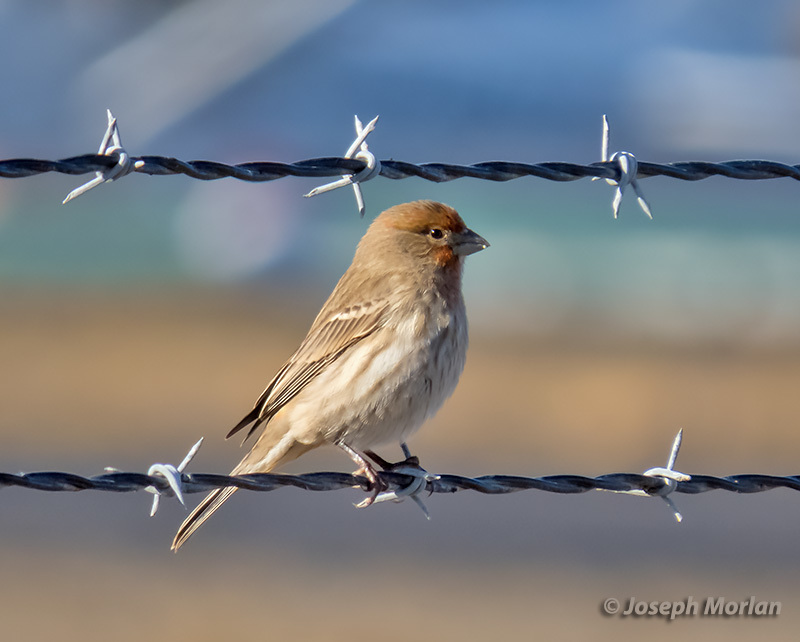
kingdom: Animalia
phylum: Chordata
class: Aves
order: Passeriformes
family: Fringillidae
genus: Haemorhous
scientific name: Haemorhous mexicanus
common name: House finch
